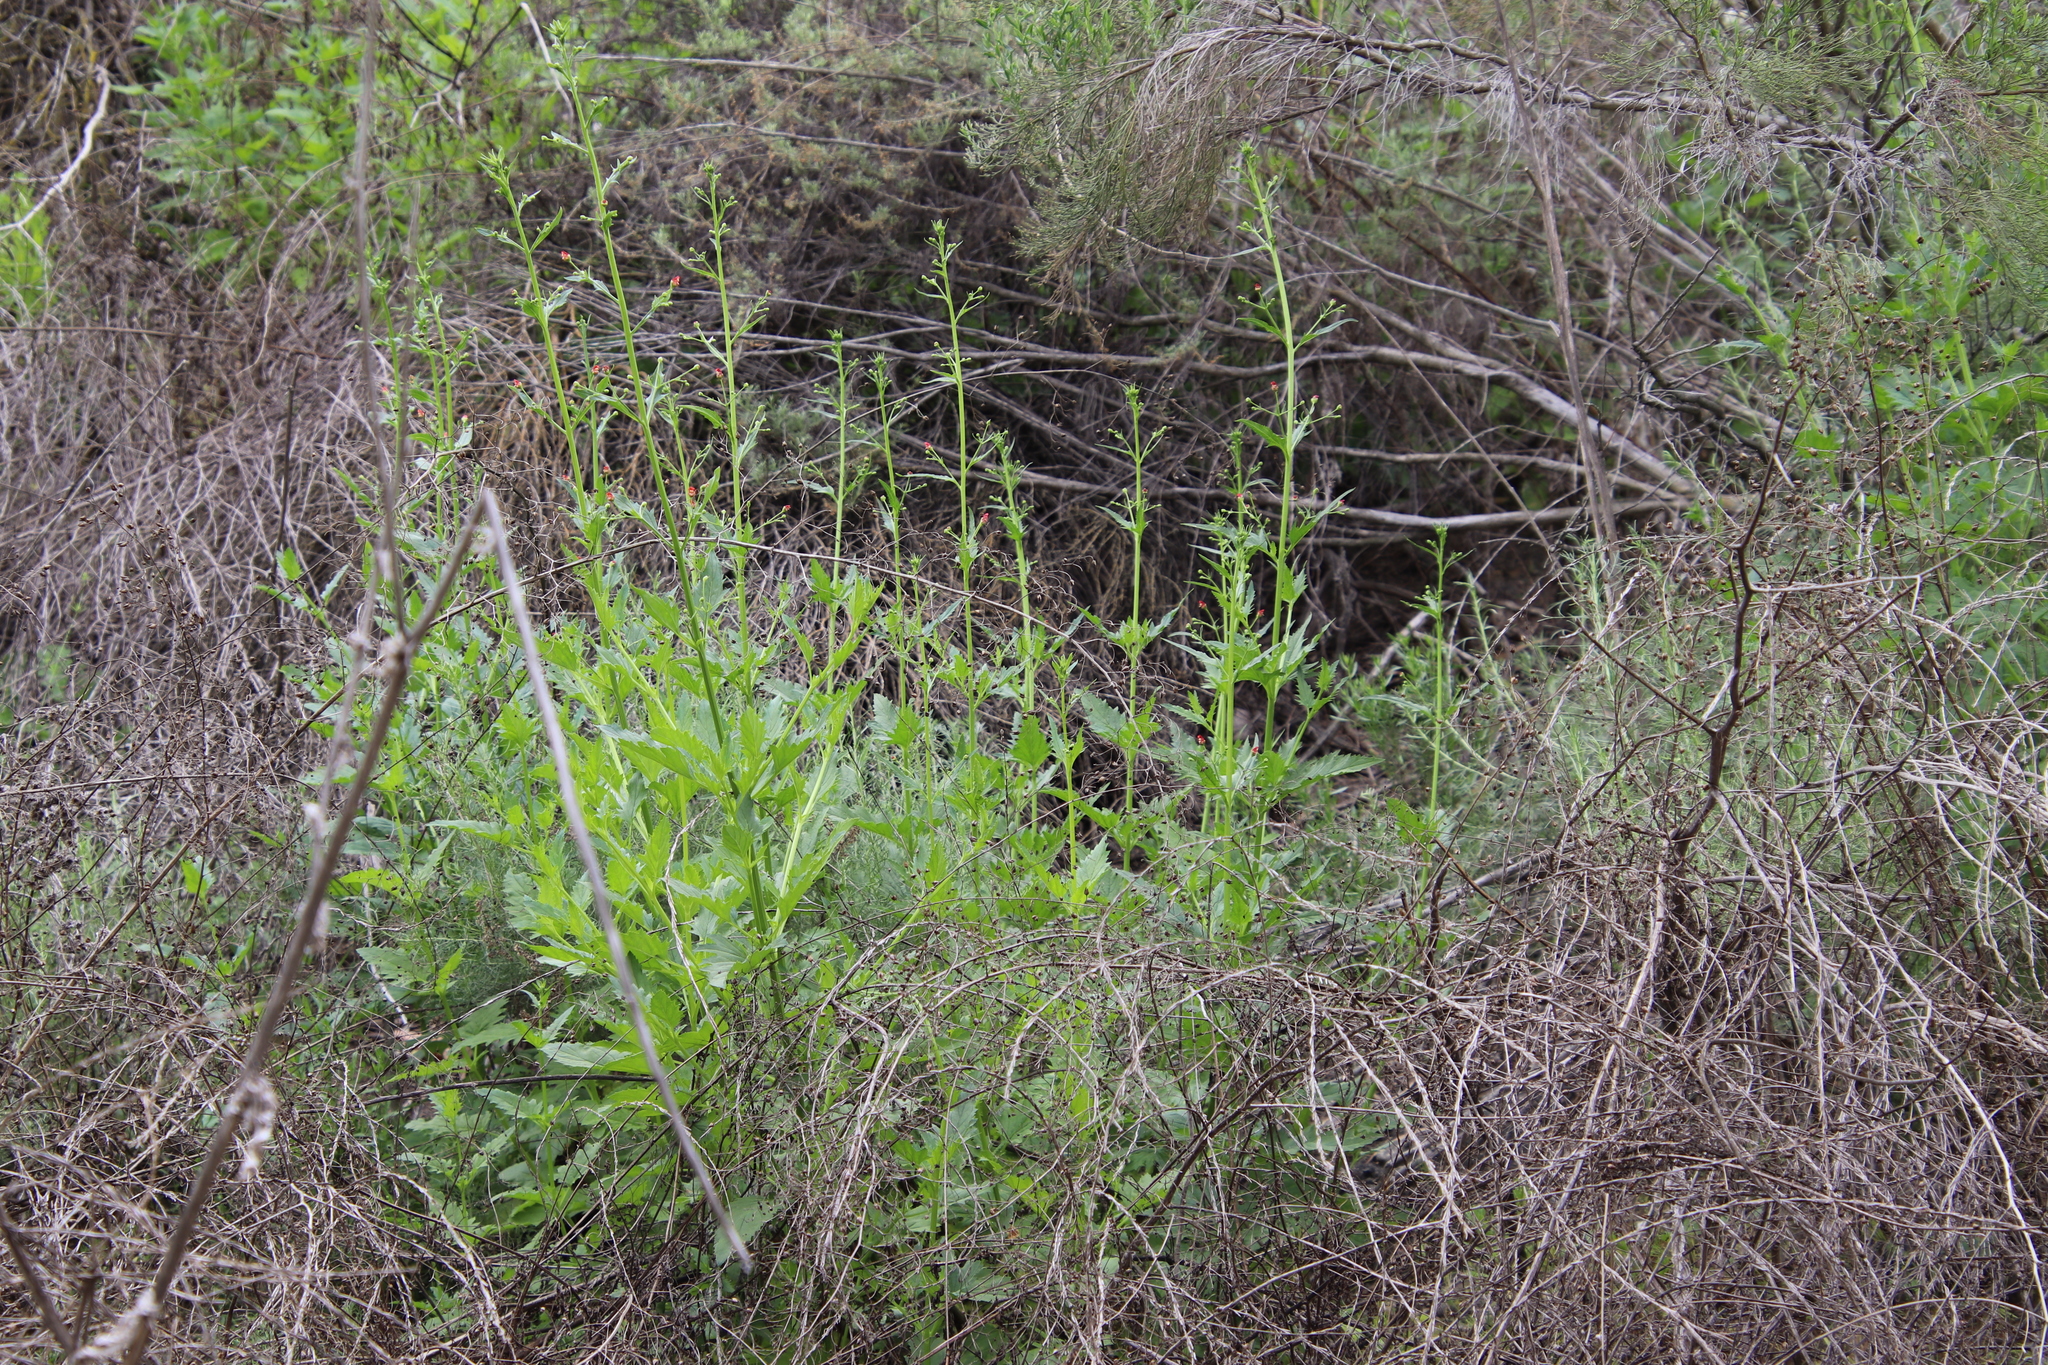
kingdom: Plantae
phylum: Tracheophyta
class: Magnoliopsida
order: Lamiales
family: Scrophulariaceae
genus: Scrophularia
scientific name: Scrophularia californica
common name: California figwort
